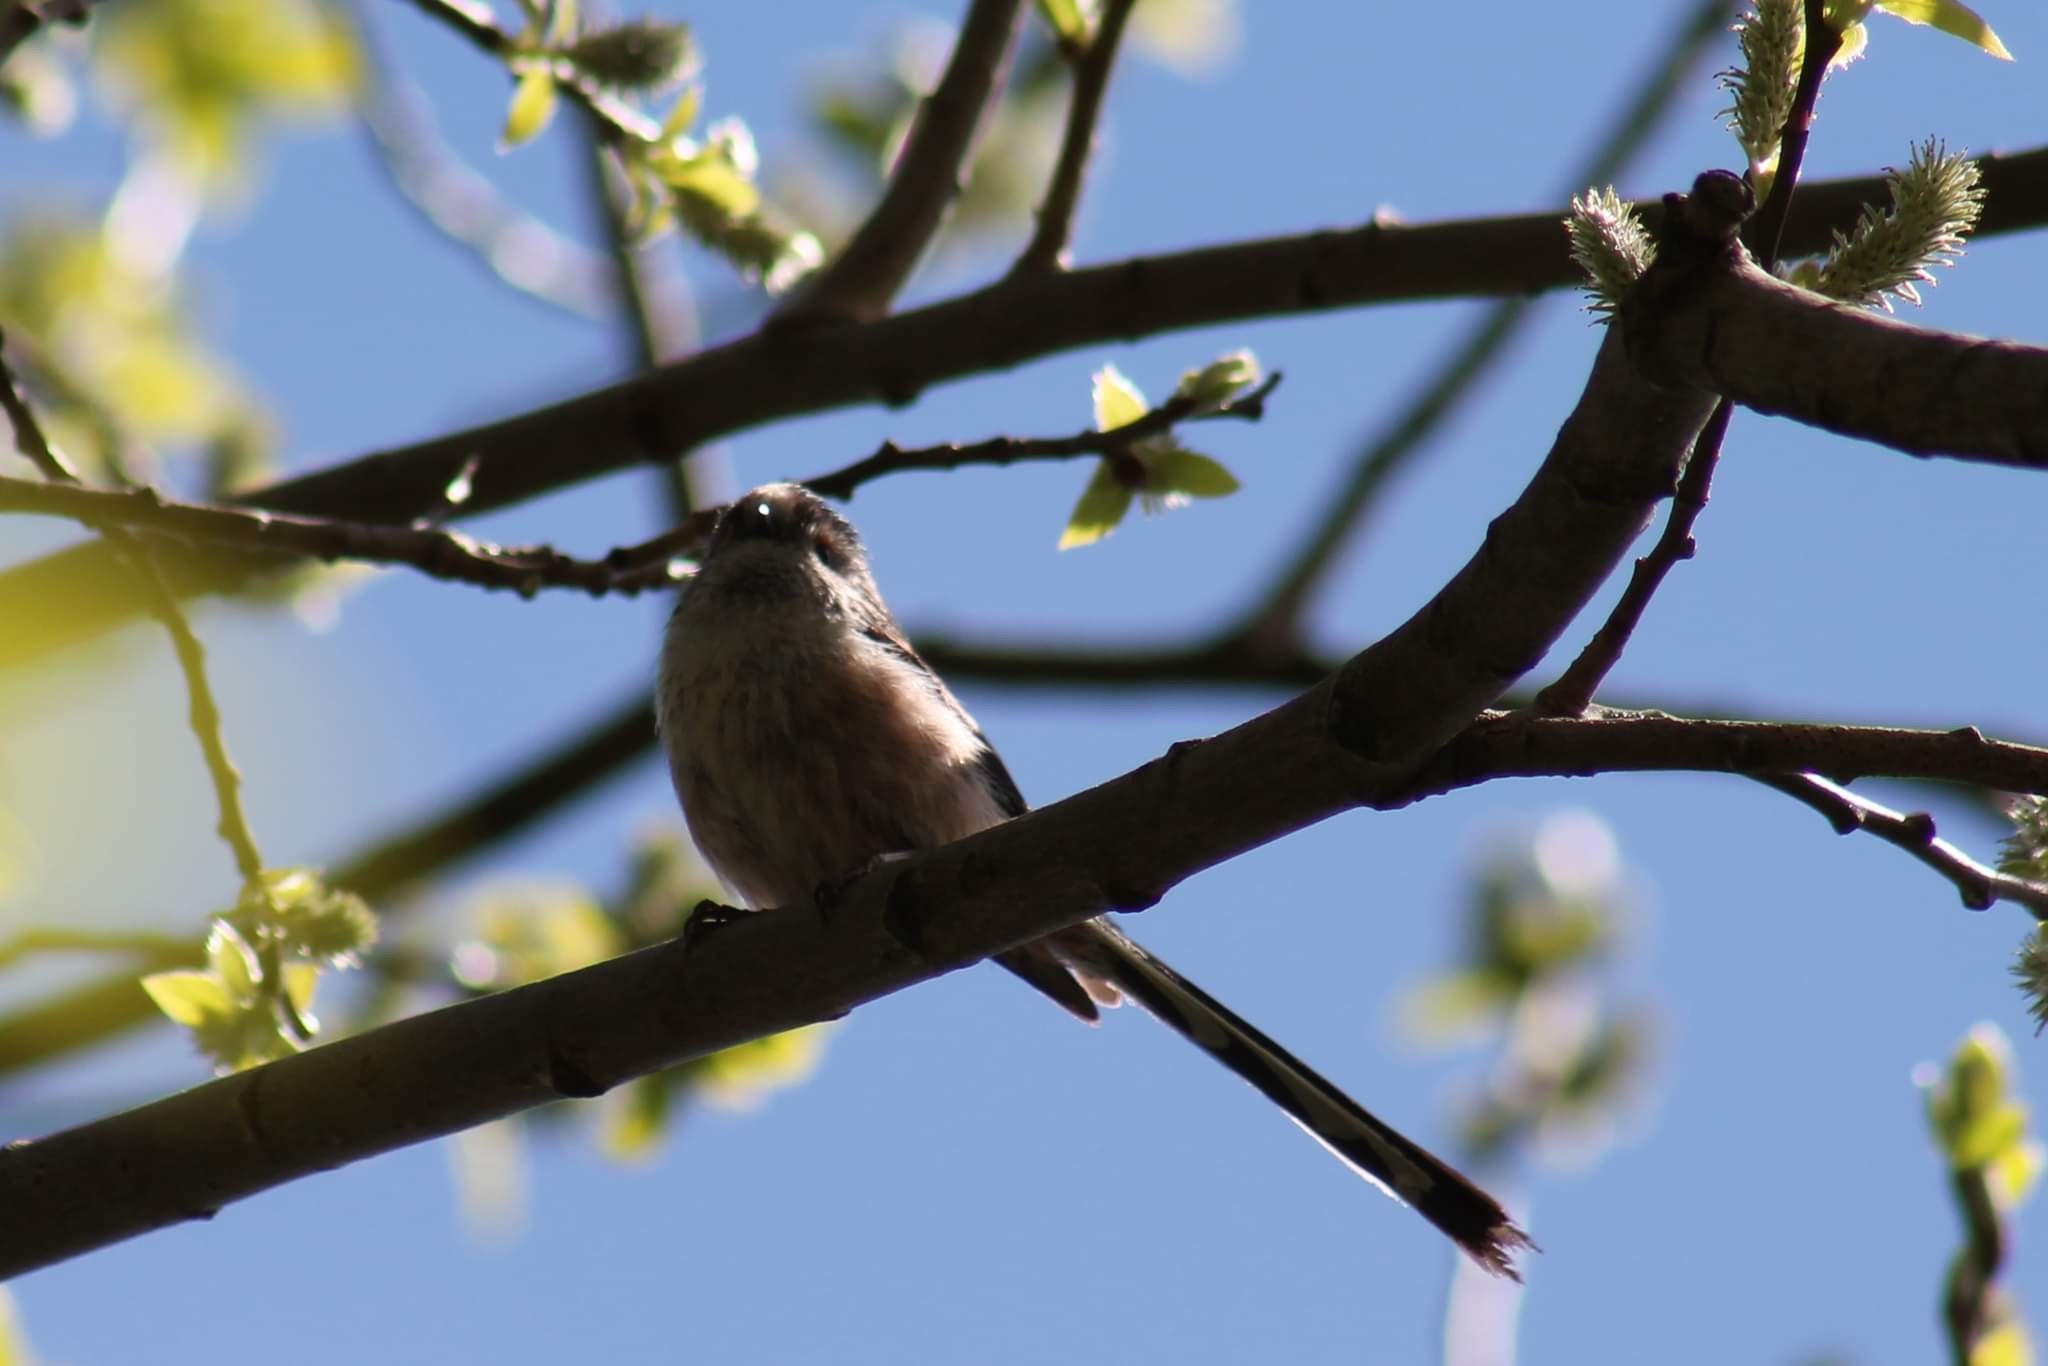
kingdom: Animalia
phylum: Chordata
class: Aves
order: Passeriformes
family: Aegithalidae
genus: Aegithalos
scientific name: Aegithalos caudatus
